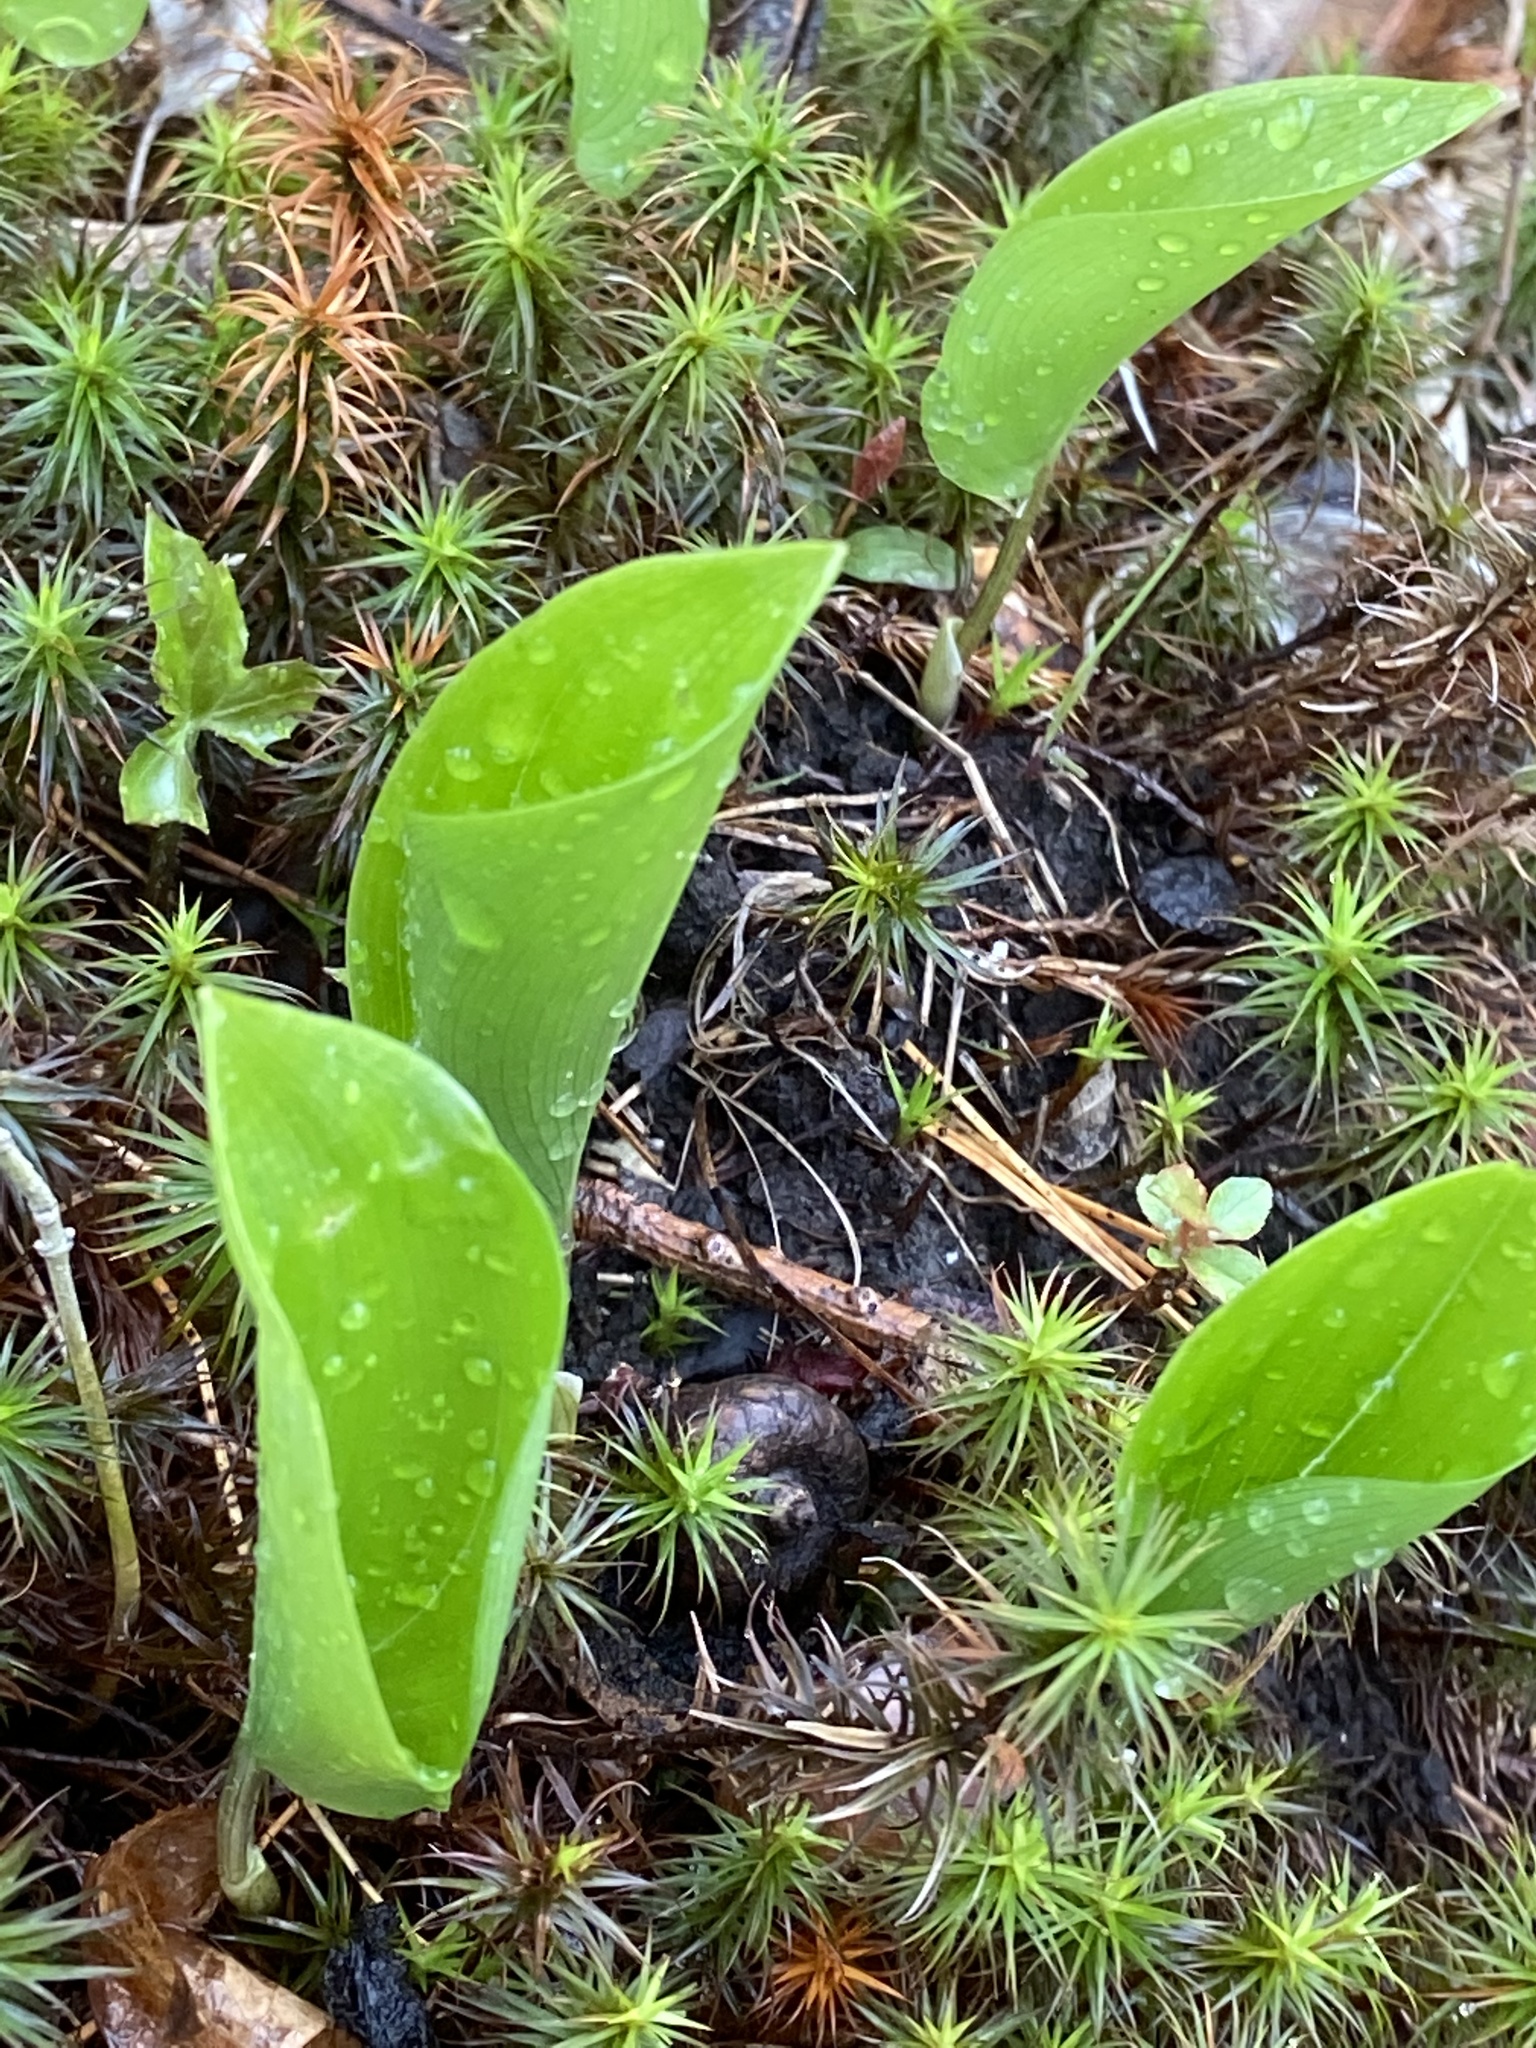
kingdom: Plantae
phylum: Tracheophyta
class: Liliopsida
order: Asparagales
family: Asparagaceae
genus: Maianthemum
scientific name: Maianthemum canadense
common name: False lily-of-the-valley
